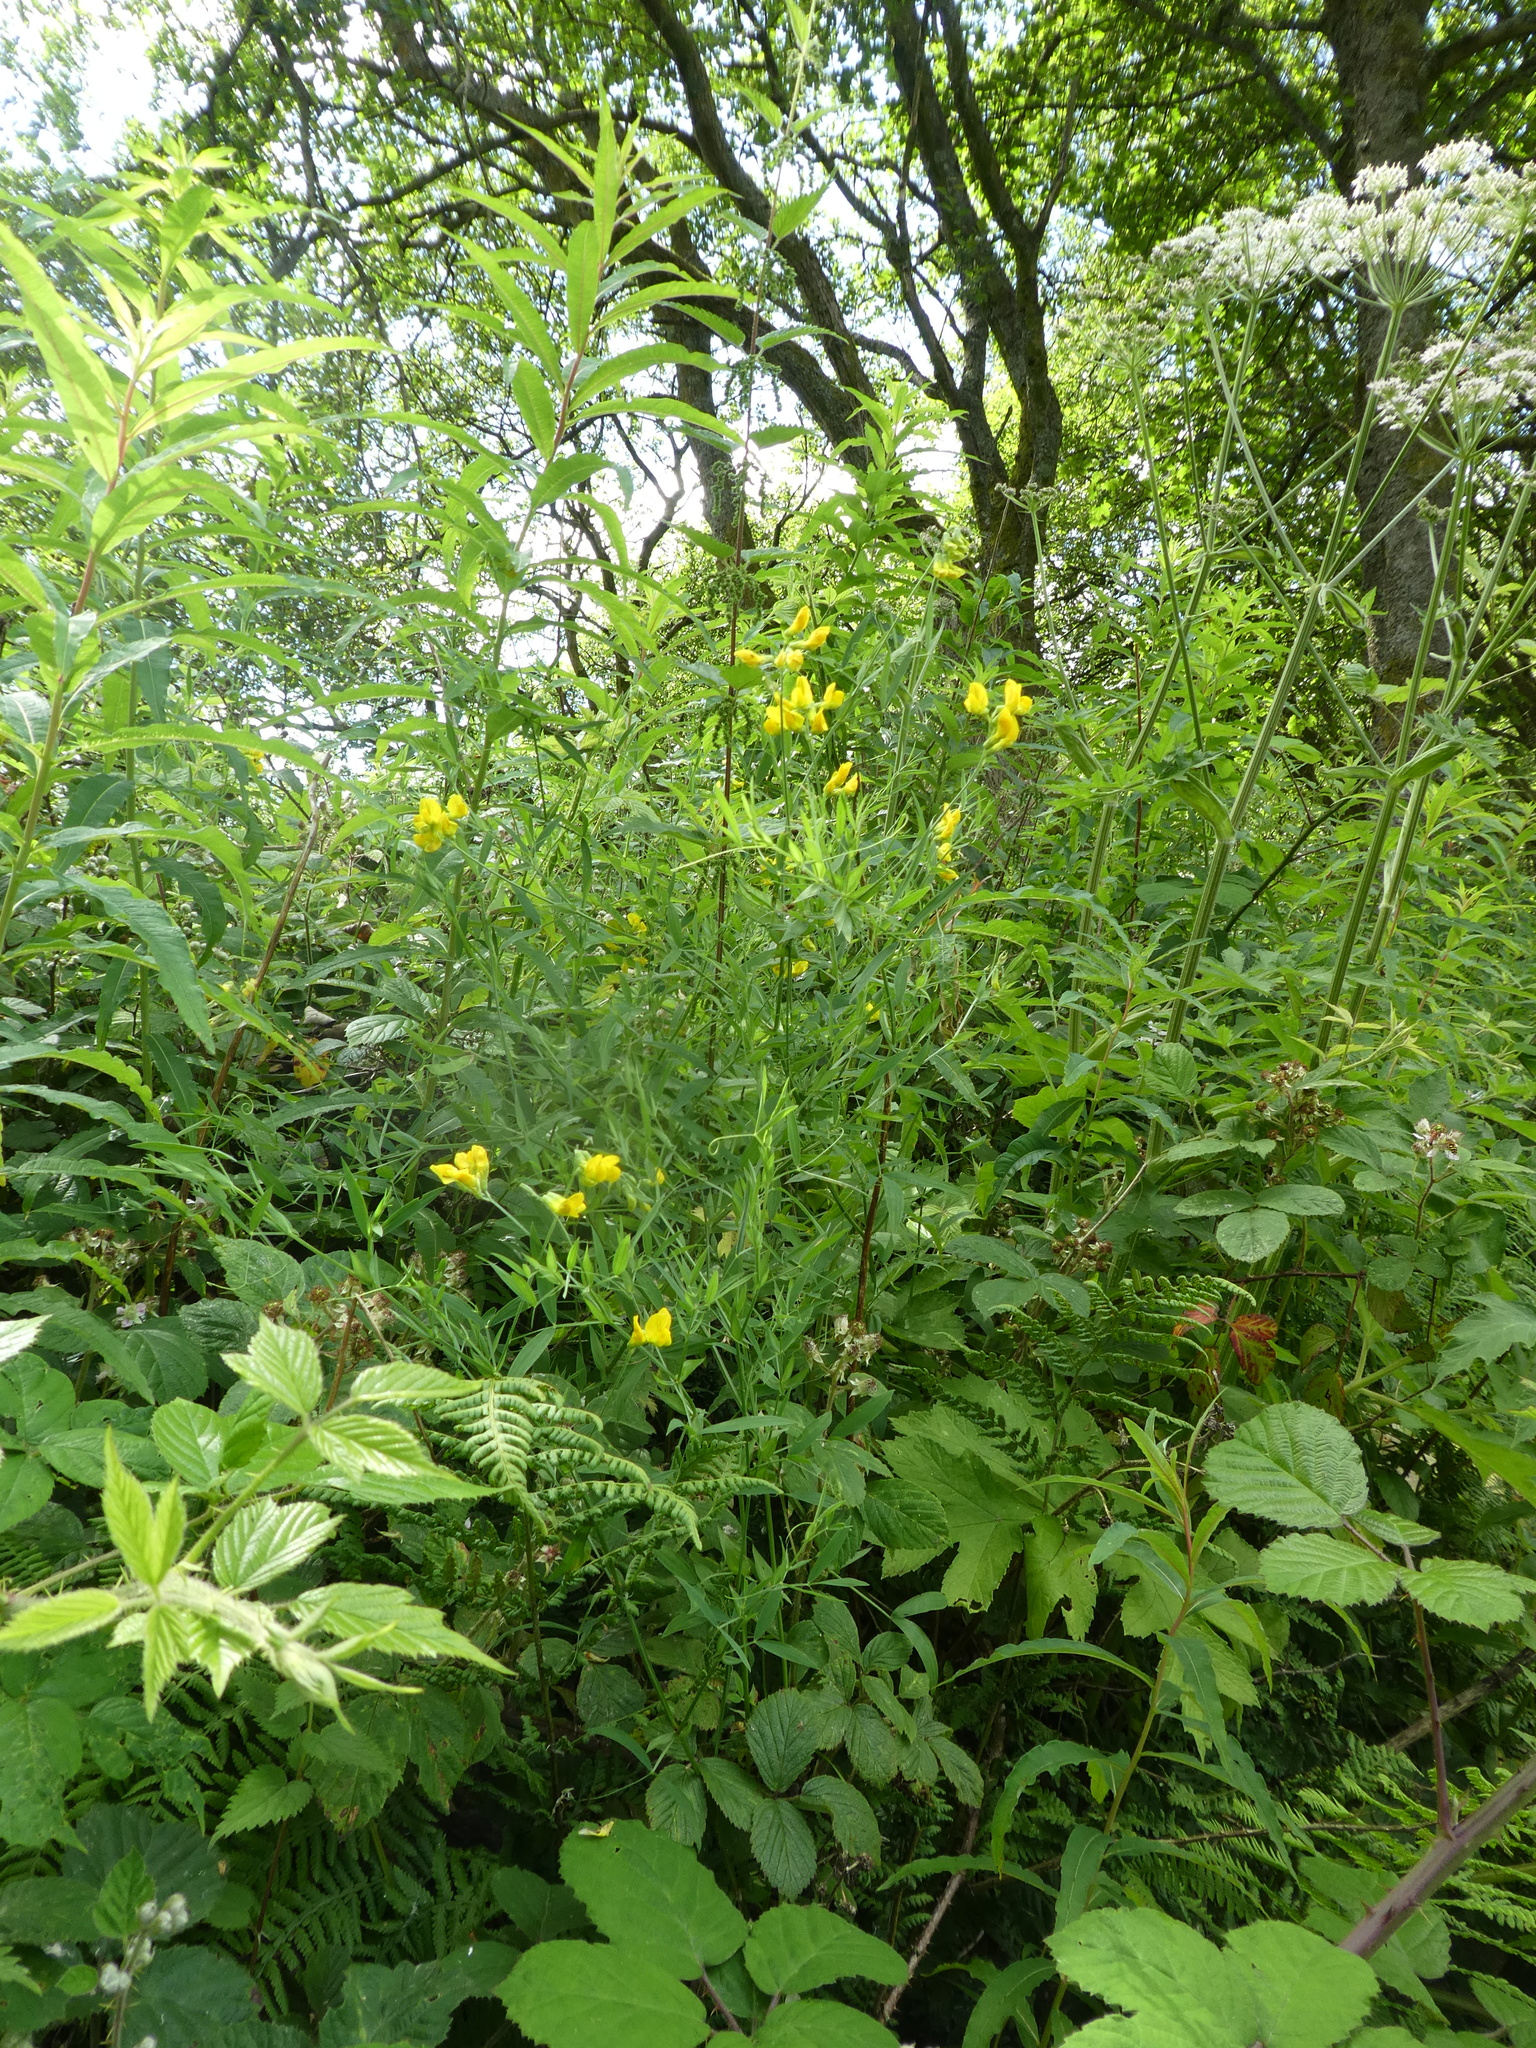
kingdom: Plantae
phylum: Tracheophyta
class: Magnoliopsida
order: Fabales
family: Fabaceae
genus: Lathyrus
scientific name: Lathyrus pratensis
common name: Meadow vetchling
